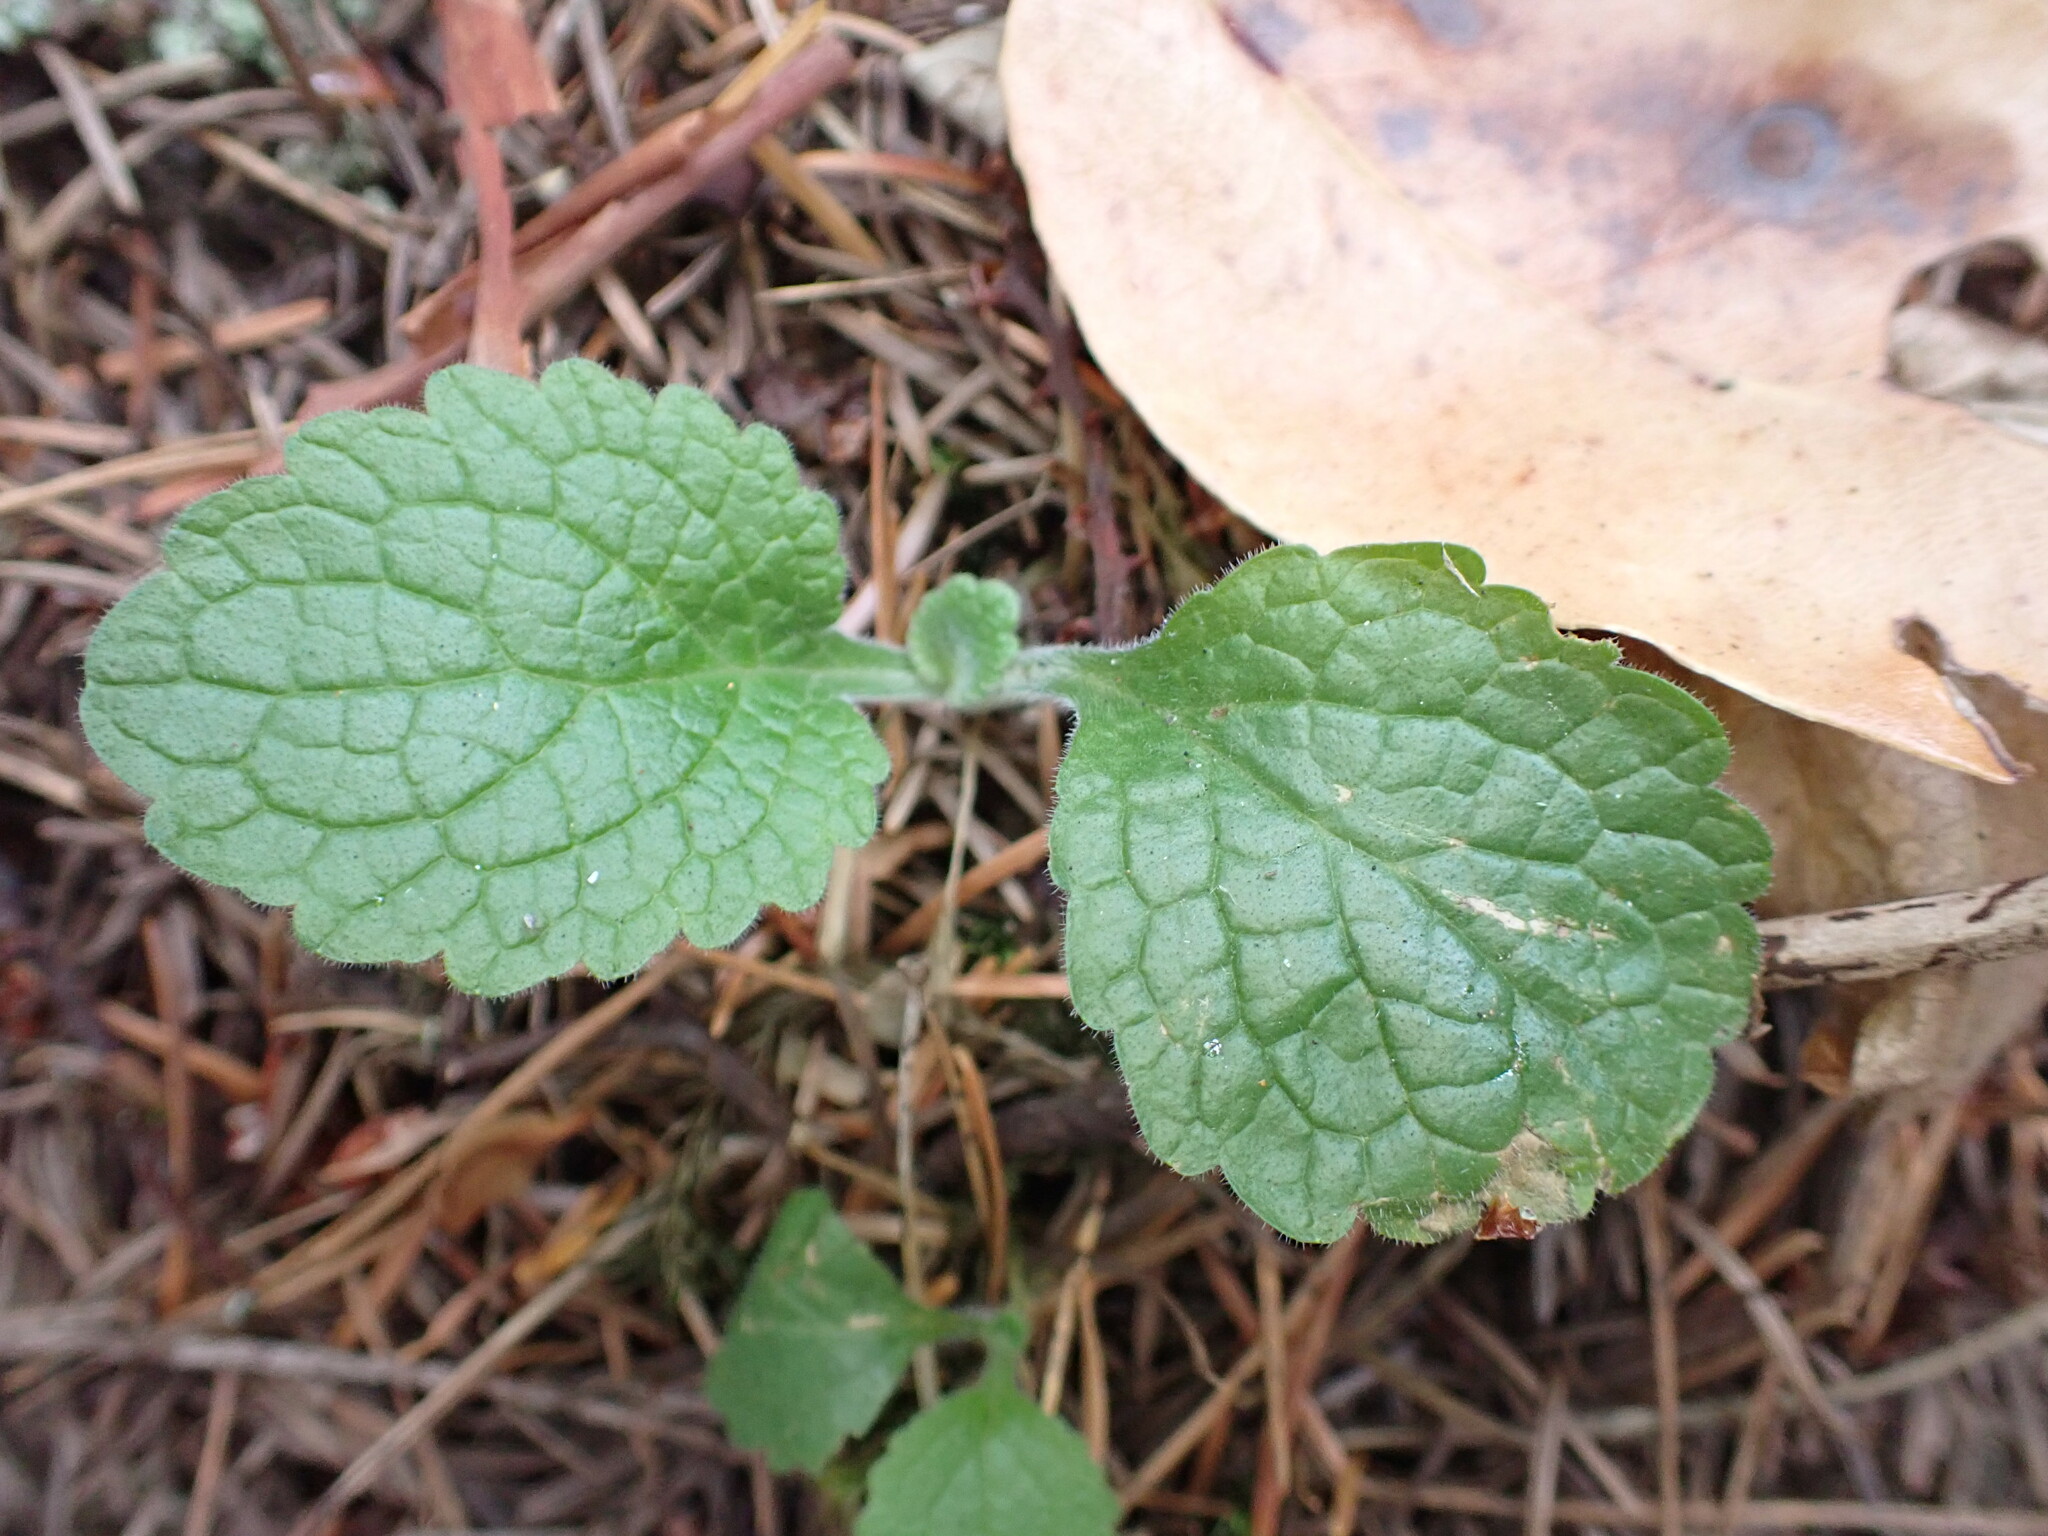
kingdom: Plantae
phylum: Tracheophyta
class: Magnoliopsida
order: Lamiales
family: Plantaginaceae
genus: Digitalis
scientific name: Digitalis purpurea
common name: Foxglove
